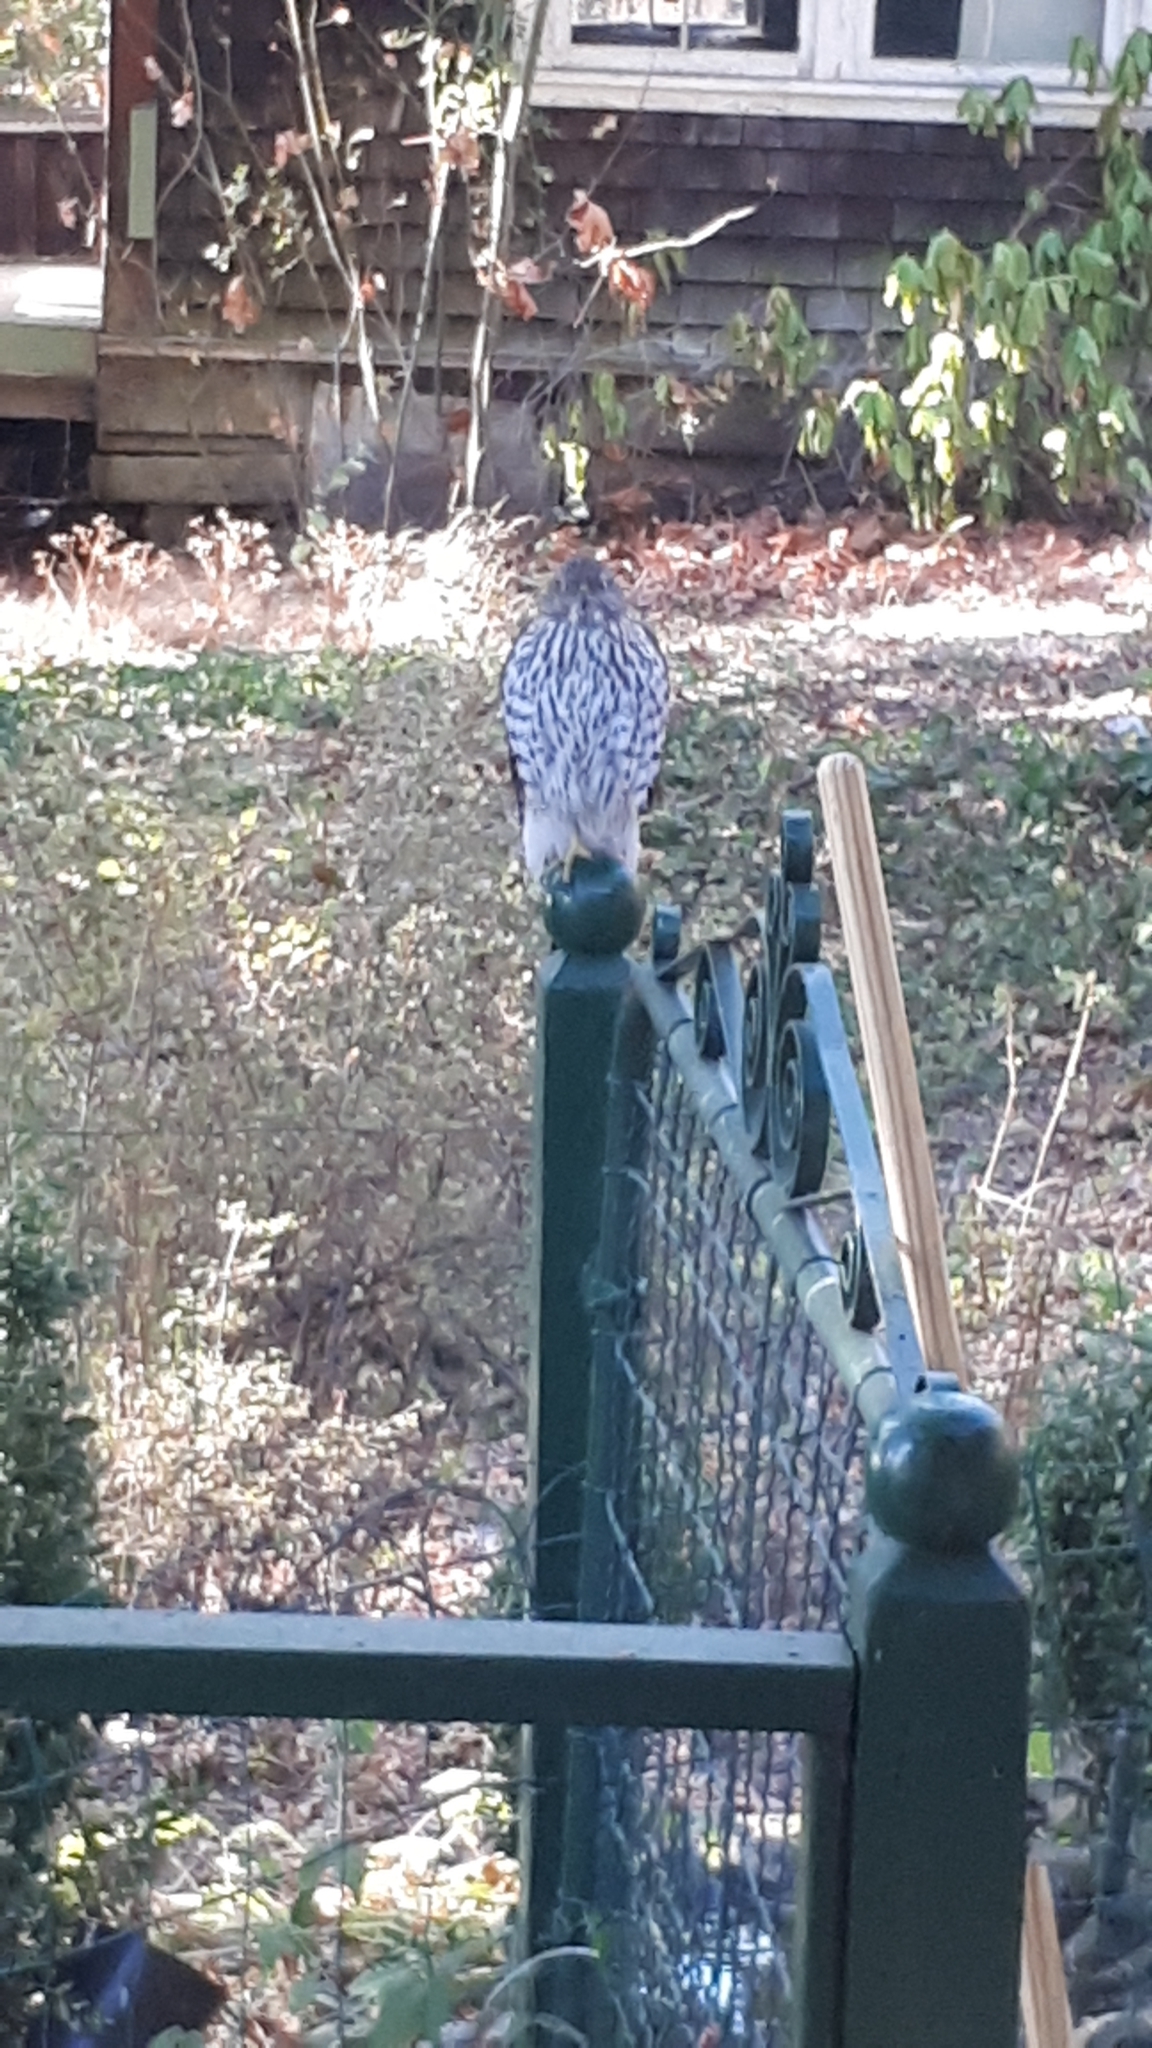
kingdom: Animalia
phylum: Chordata
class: Aves
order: Accipitriformes
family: Accipitridae
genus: Accipiter
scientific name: Accipiter cooperii
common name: Cooper's hawk
